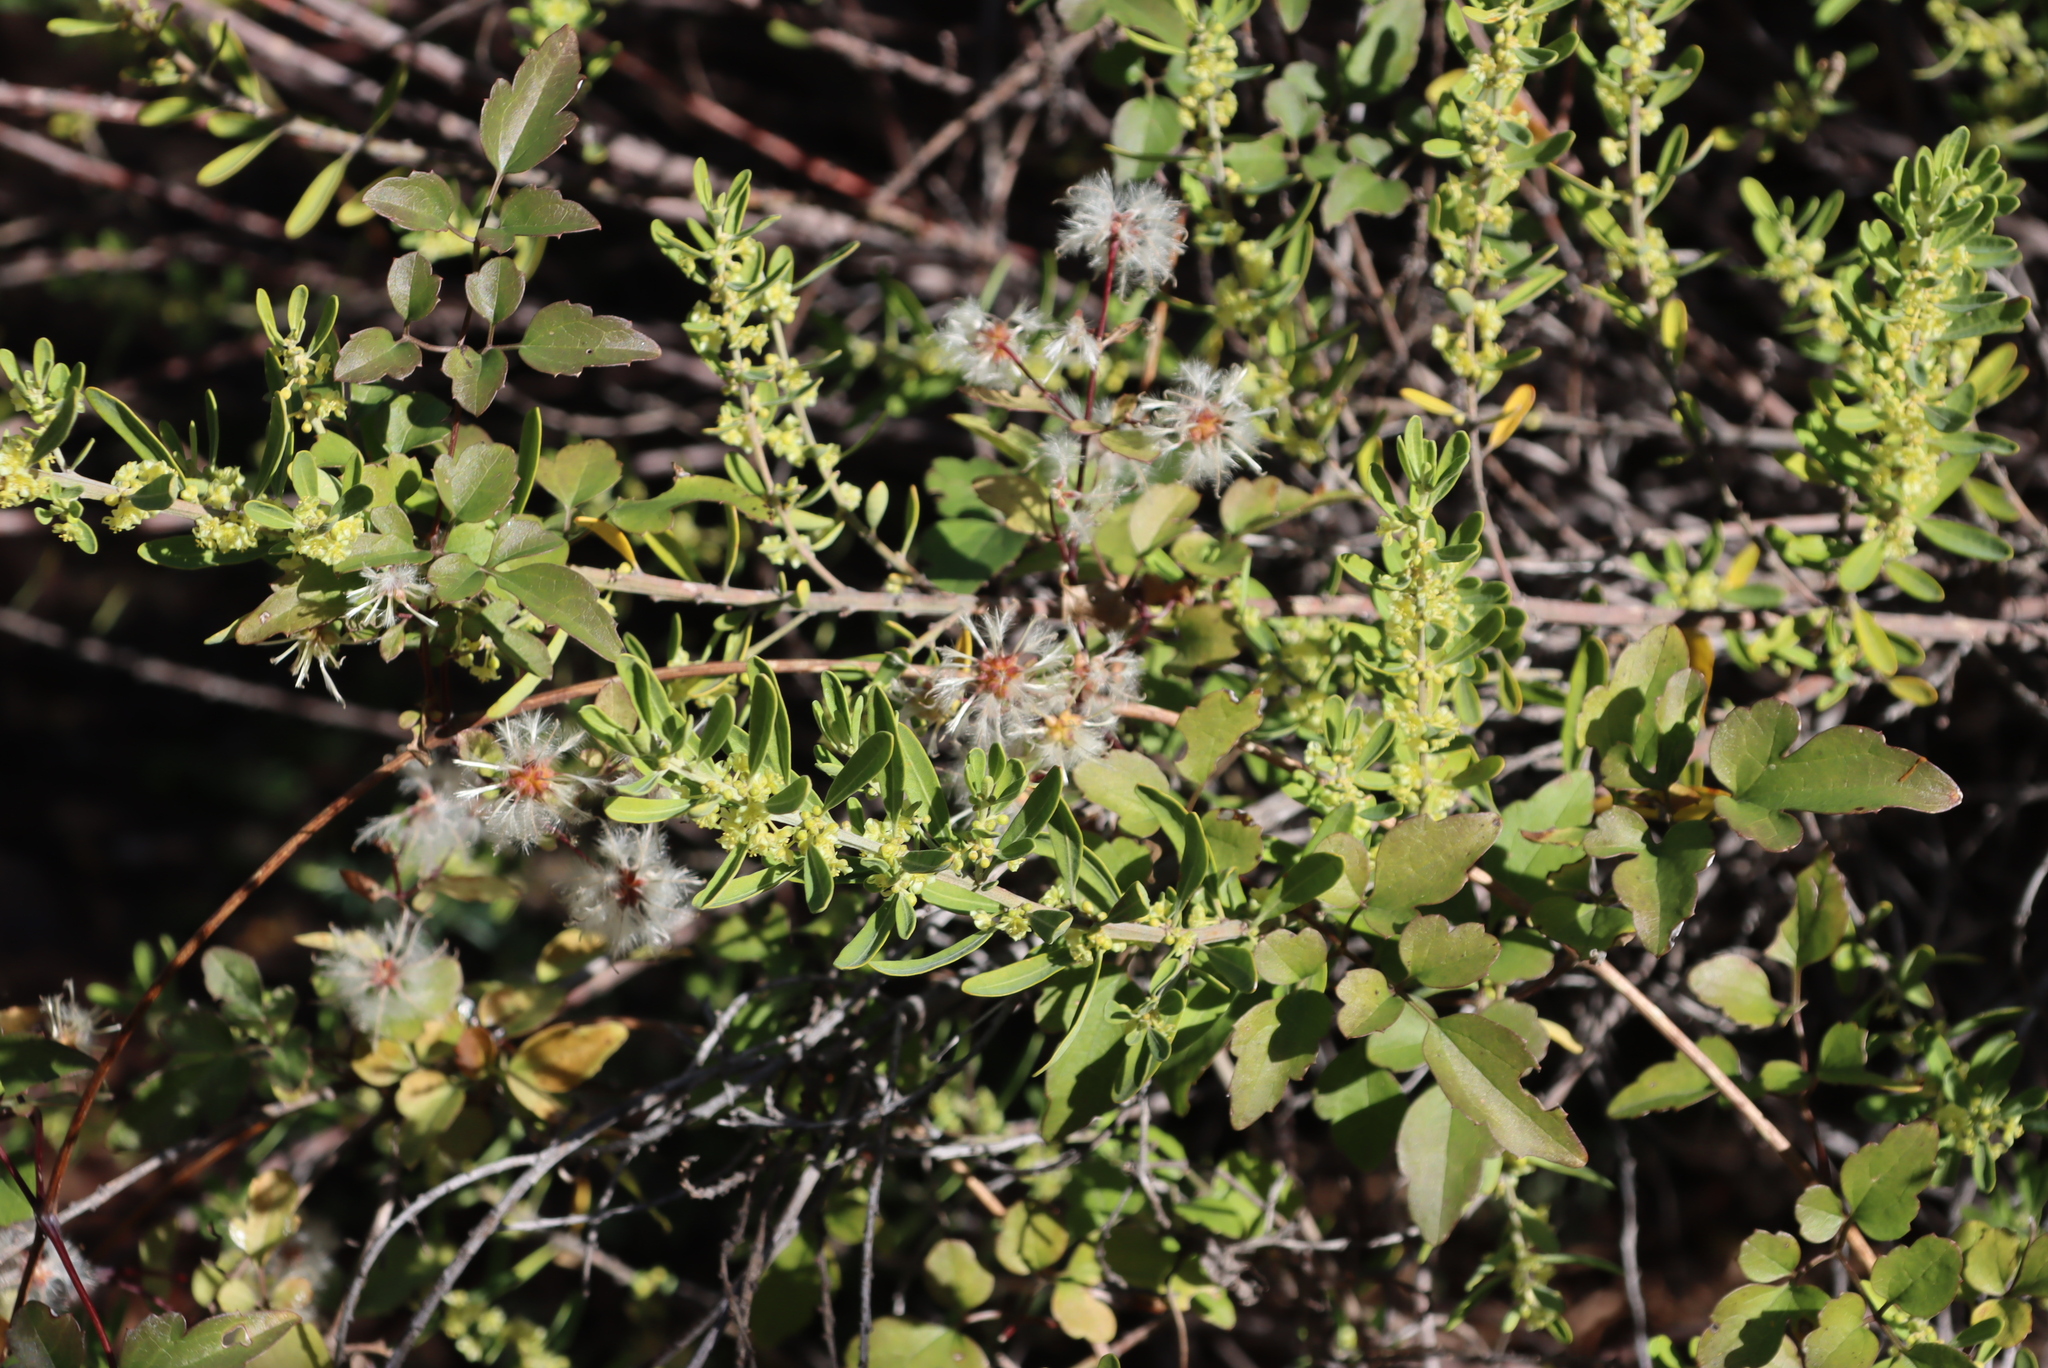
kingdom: Plantae
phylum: Tracheophyta
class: Magnoliopsida
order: Ranunculales
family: Ranunculaceae
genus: Clematis
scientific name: Clematis brachiata
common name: Traveler's-joy
